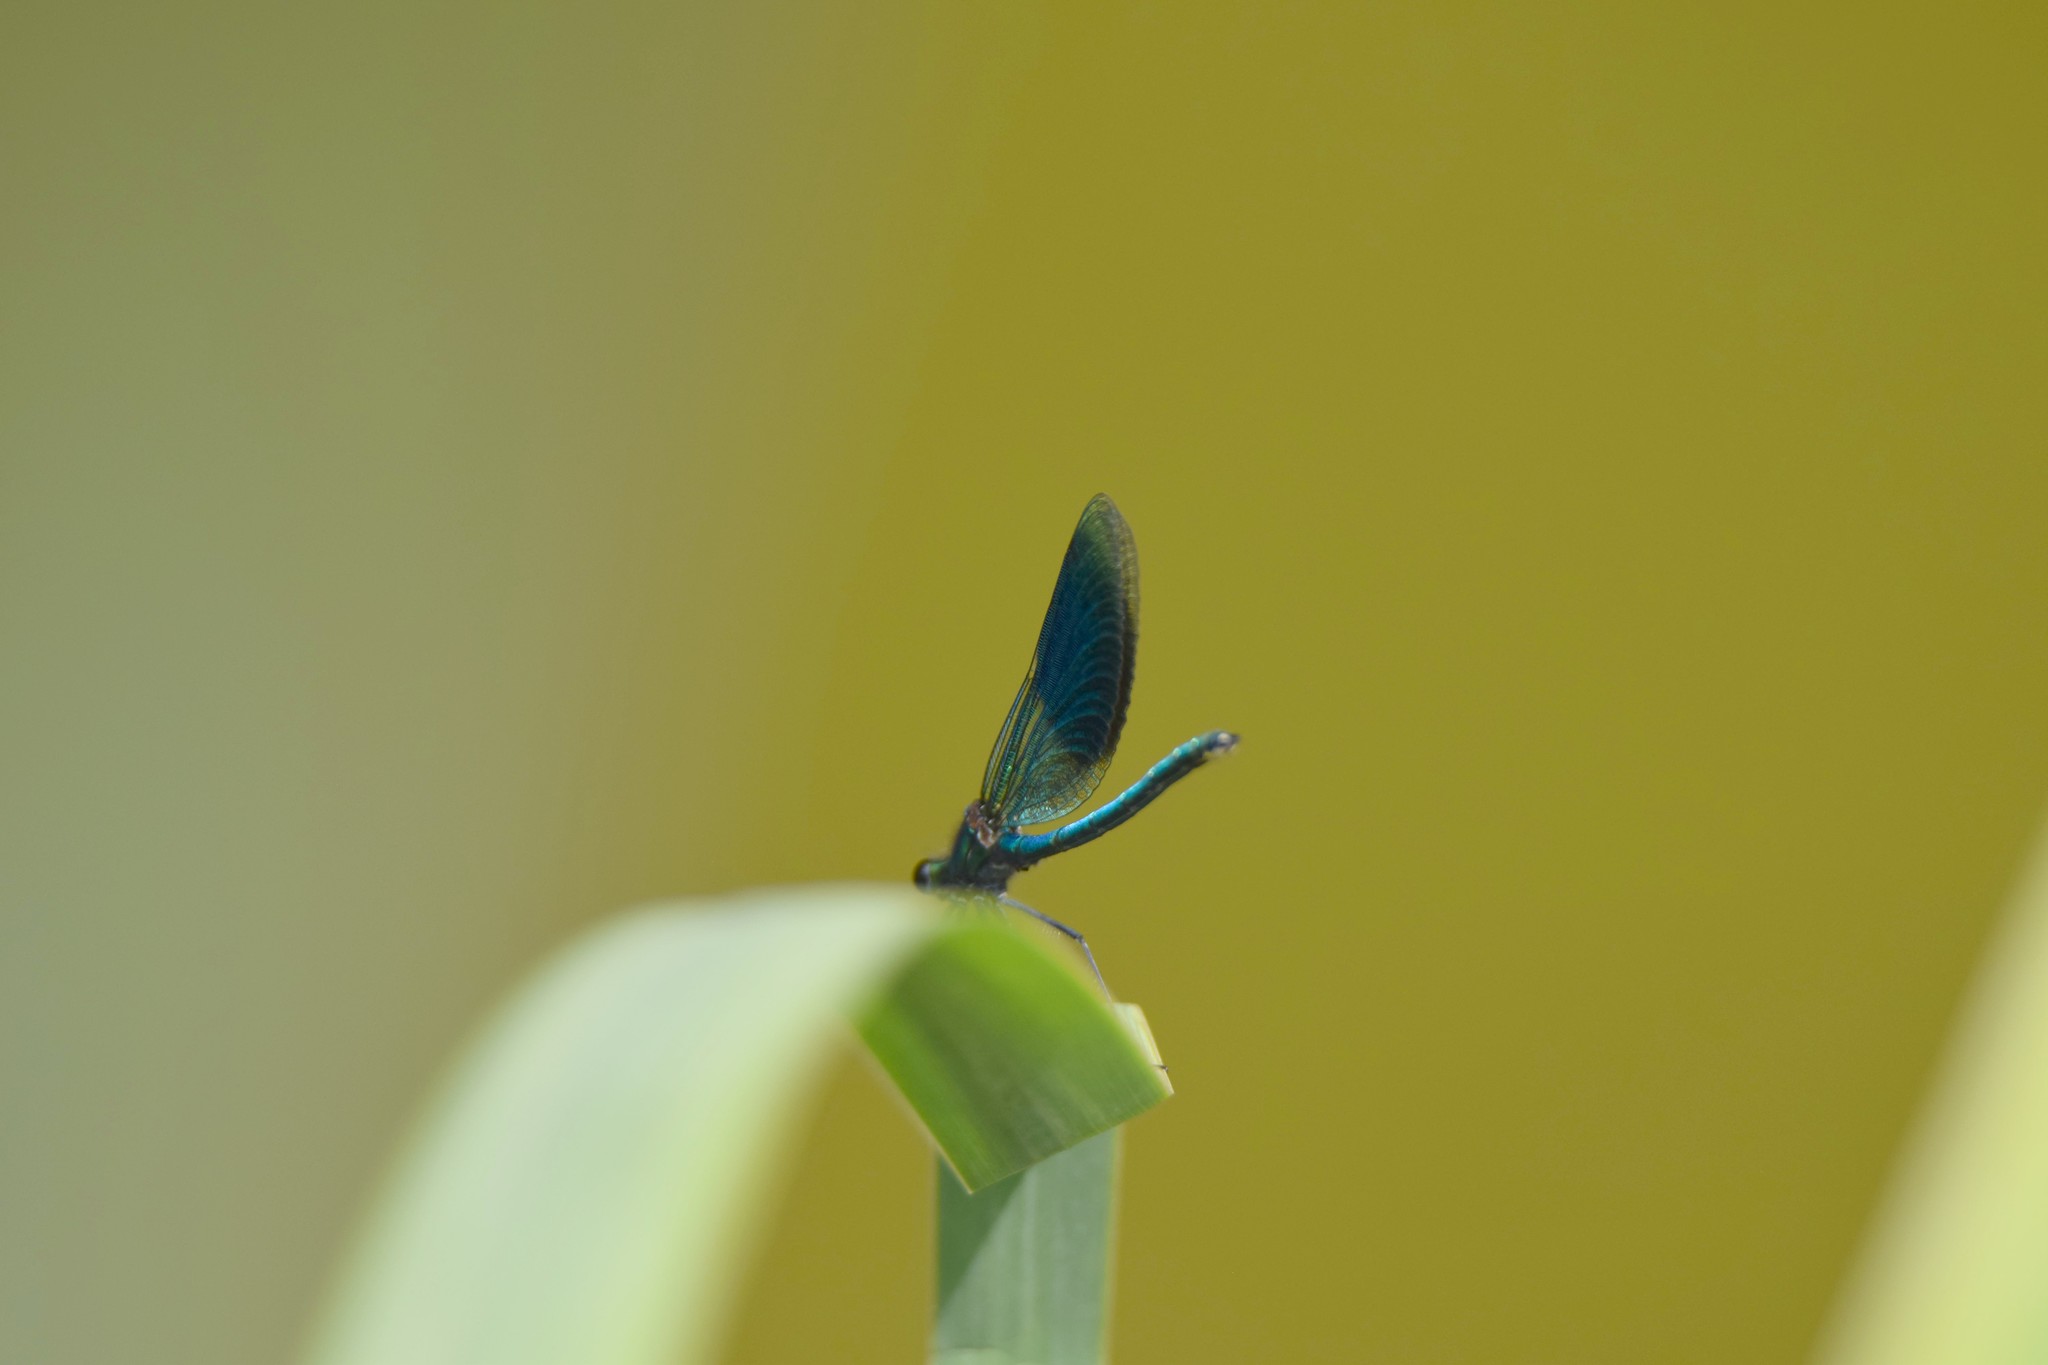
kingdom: Animalia
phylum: Arthropoda
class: Insecta
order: Odonata
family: Calopterygidae
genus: Calopteryx
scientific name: Calopteryx splendens
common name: Banded demoiselle
